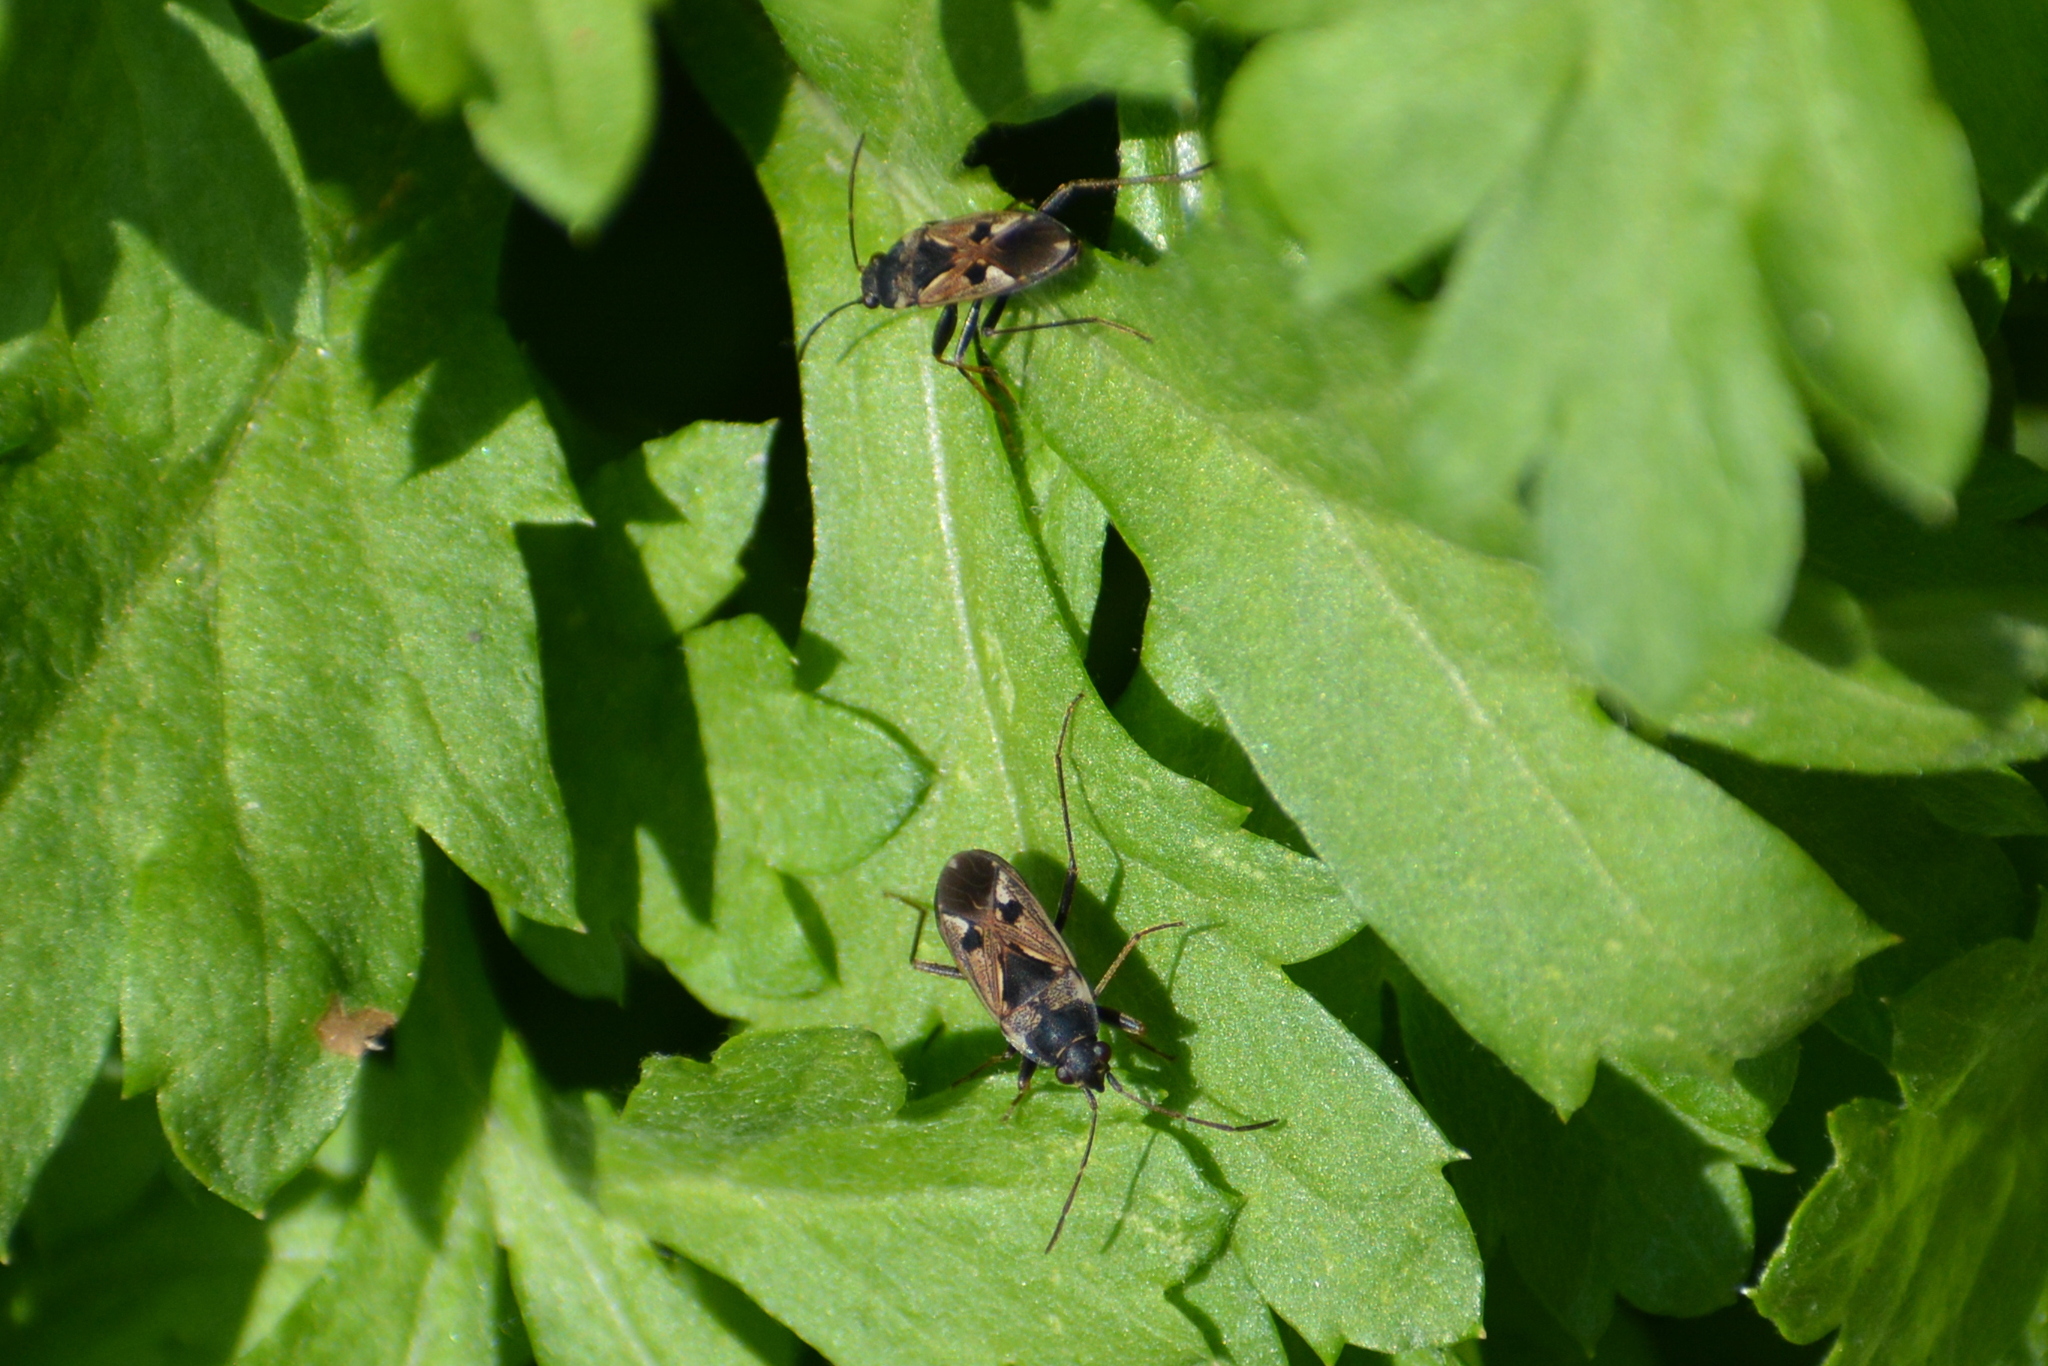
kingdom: Animalia
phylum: Arthropoda
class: Insecta
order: Hemiptera
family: Rhyparochromidae
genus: Rhyparochromus
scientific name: Rhyparochromus vulgaris
